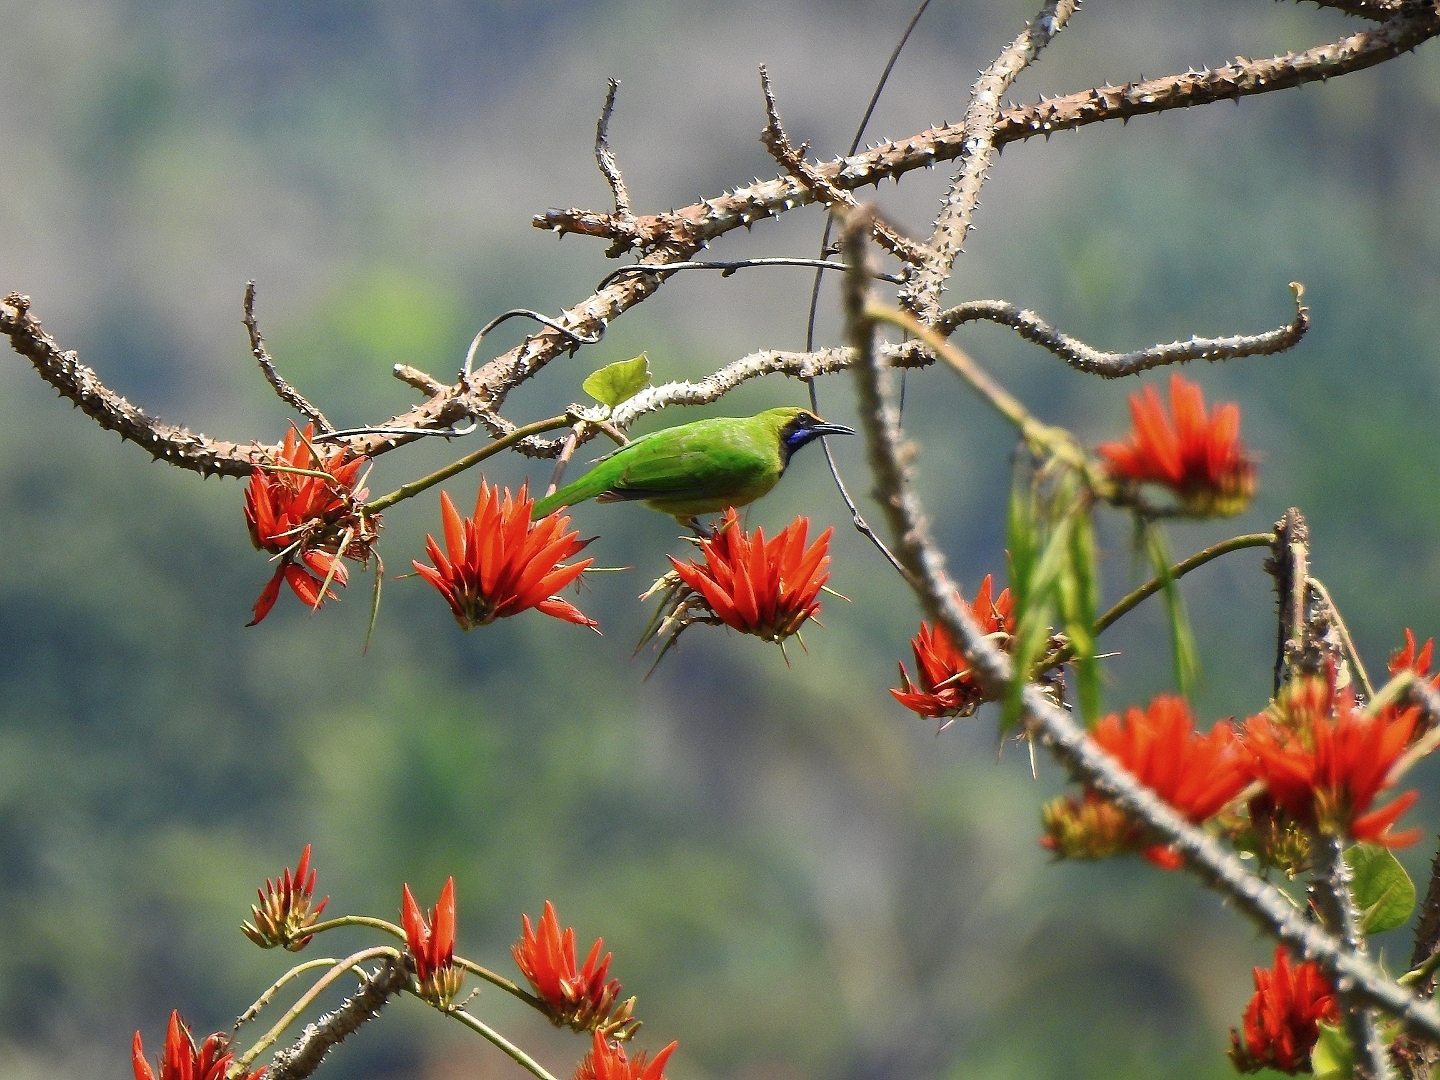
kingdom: Animalia
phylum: Chordata
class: Aves
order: Passeriformes
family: Chloropseidae
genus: Chloropsis
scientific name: Chloropsis aurifrons
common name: Golden-fronted leafbird
